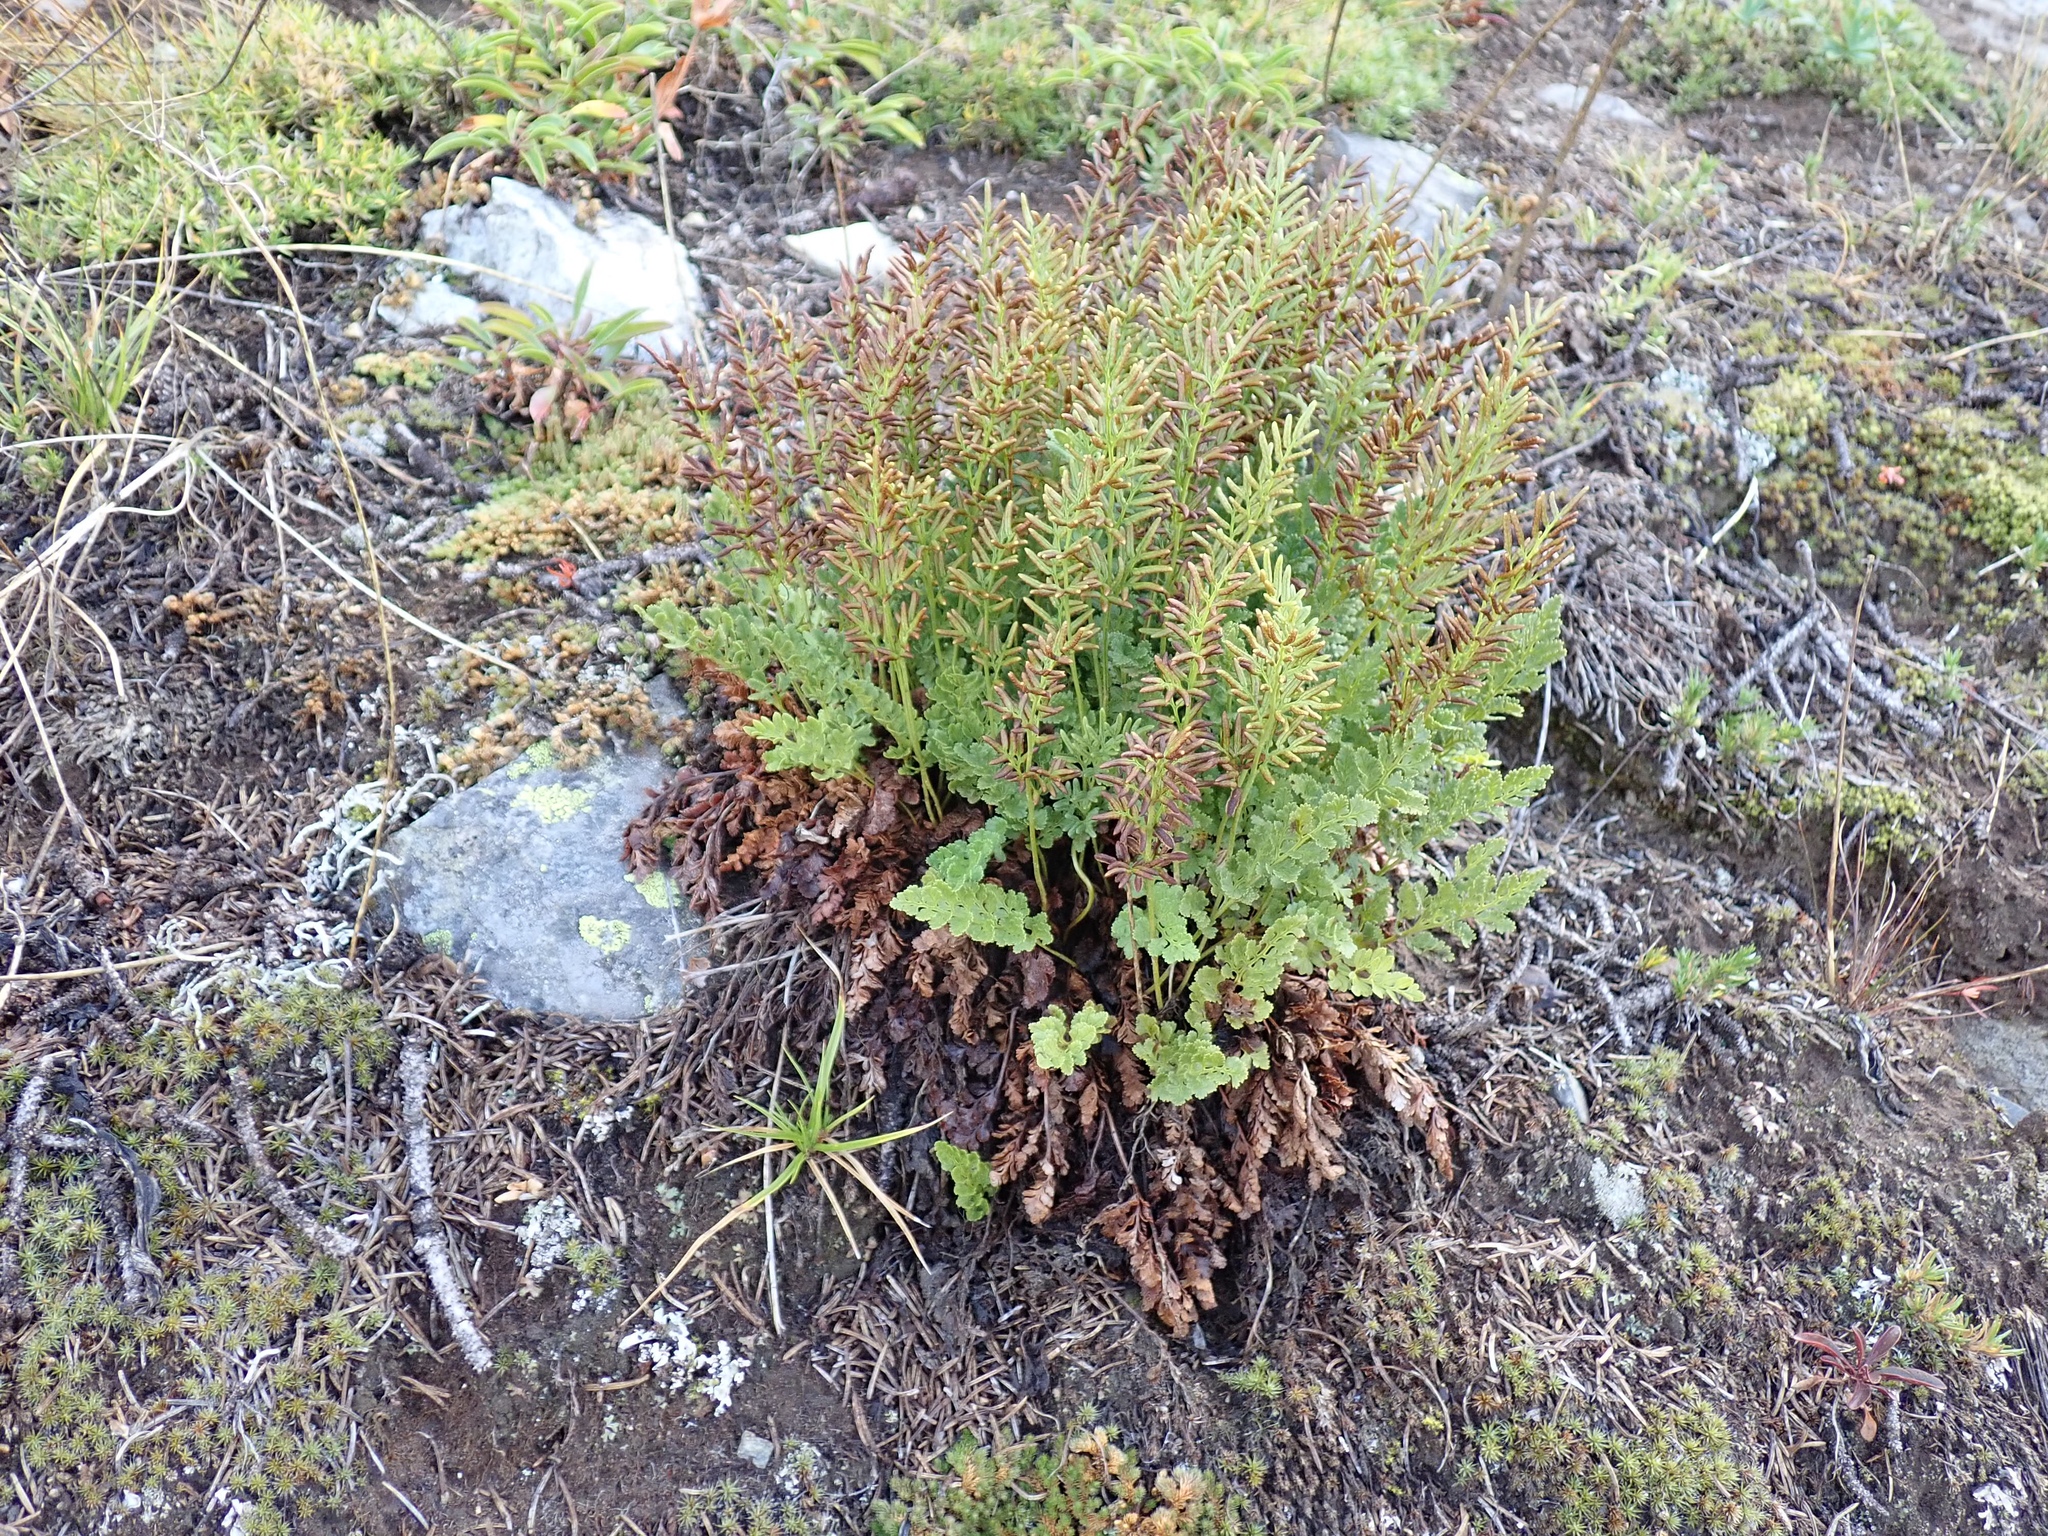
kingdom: Plantae
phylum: Tracheophyta
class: Polypodiopsida
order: Polypodiales
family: Pteridaceae
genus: Cryptogramma
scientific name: Cryptogramma acrostichoides
